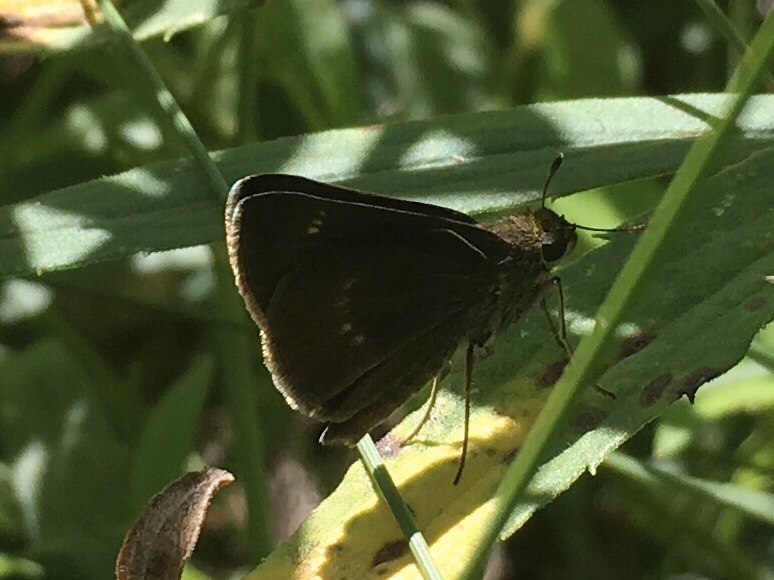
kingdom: Animalia
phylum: Arthropoda
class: Insecta
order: Lepidoptera
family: Hesperiidae
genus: Euphyes
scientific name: Euphyes vestris
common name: Dun skipper
